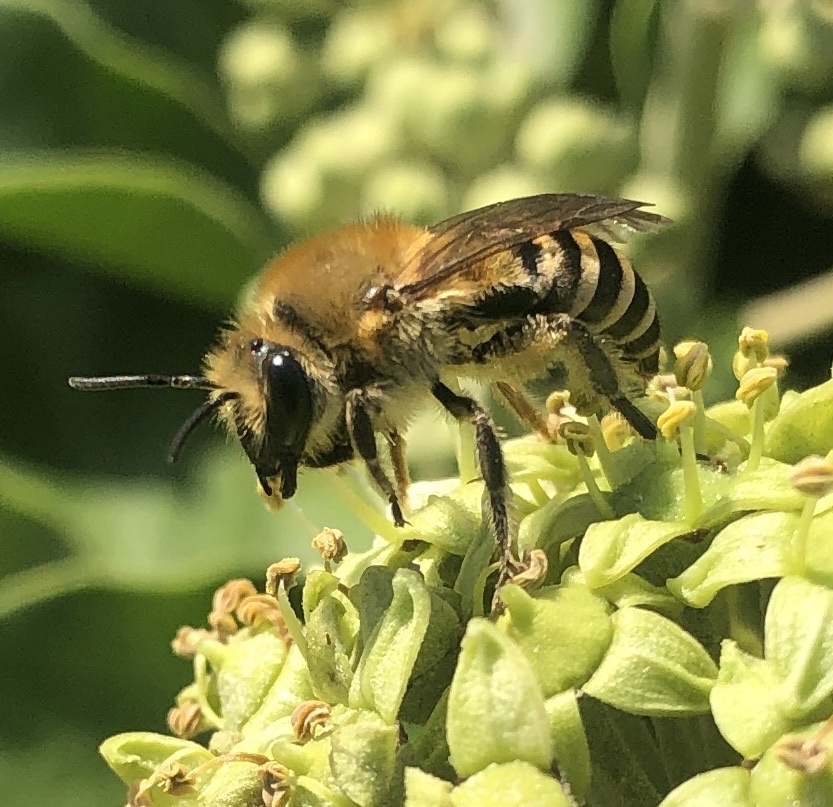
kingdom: Animalia
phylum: Arthropoda
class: Insecta
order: Hymenoptera
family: Colletidae
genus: Colletes
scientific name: Colletes hederae
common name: Ivy bee
